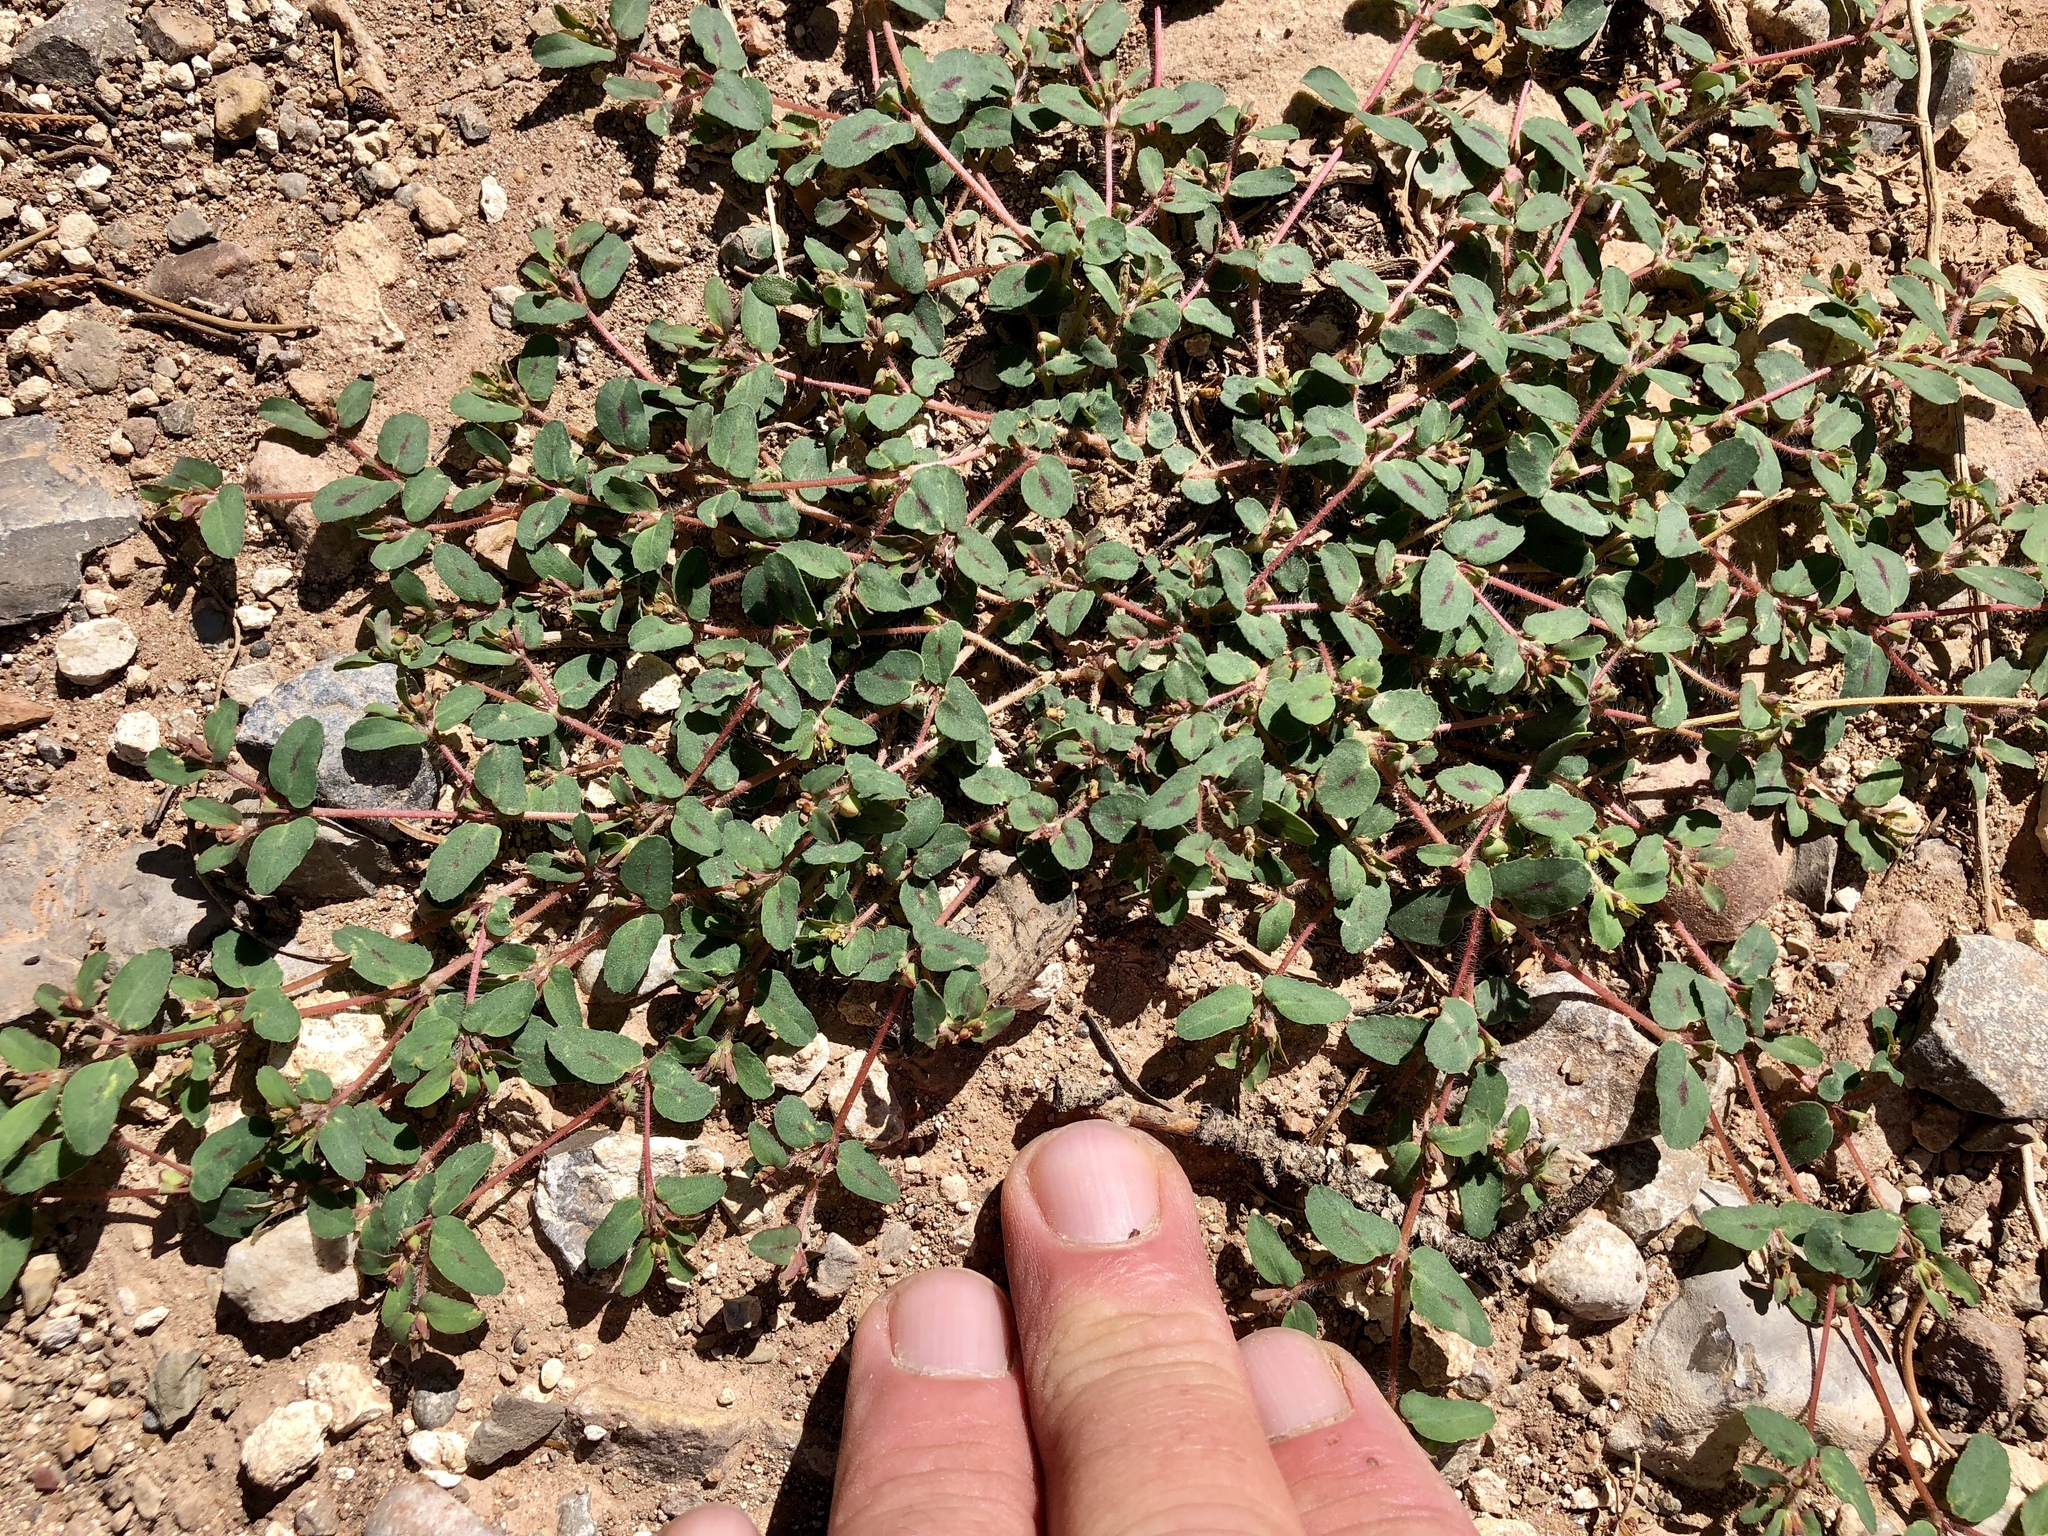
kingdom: Plantae
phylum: Tracheophyta
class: Magnoliopsida
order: Malpighiales
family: Euphorbiaceae
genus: Euphorbia
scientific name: Euphorbia serrula
